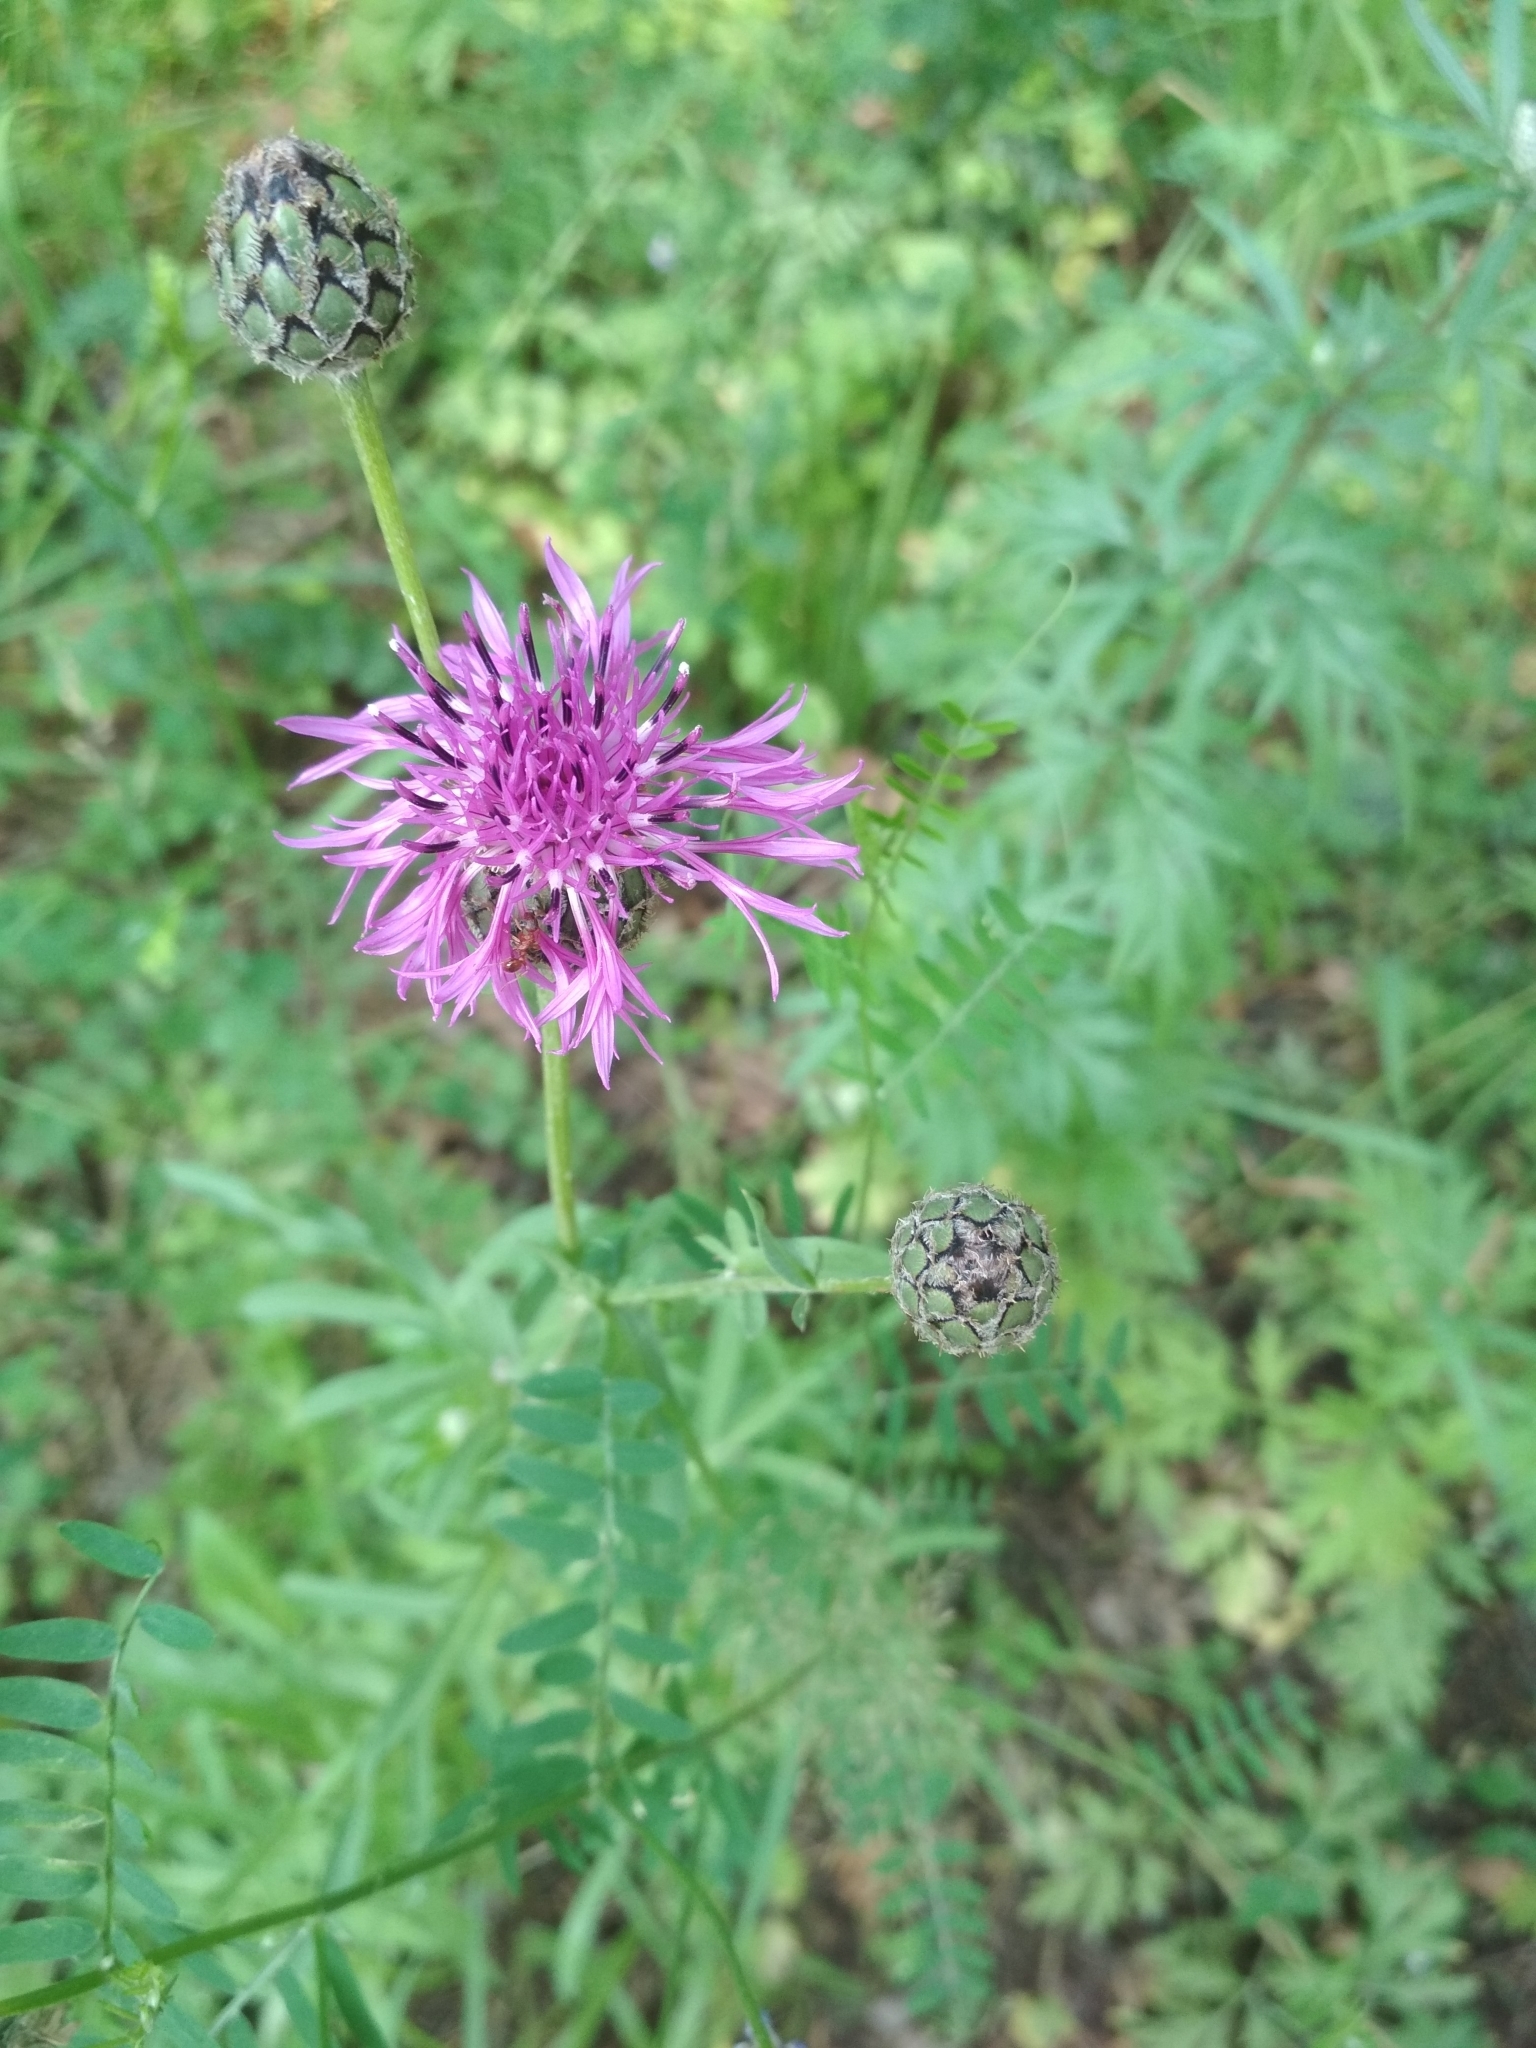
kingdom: Plantae
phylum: Tracheophyta
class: Magnoliopsida
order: Asterales
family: Asteraceae
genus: Centaurea
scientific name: Centaurea scabiosa
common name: Greater knapweed
